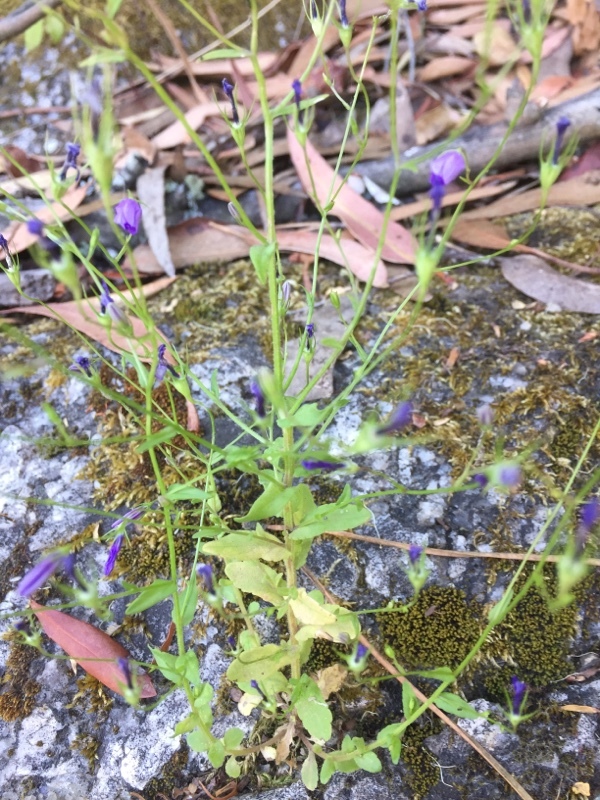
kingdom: Plantae
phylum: Tracheophyta
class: Magnoliopsida
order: Asterales
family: Campanulaceae
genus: Campanula
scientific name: Campanula rapunculus
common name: Rampion bellflower
